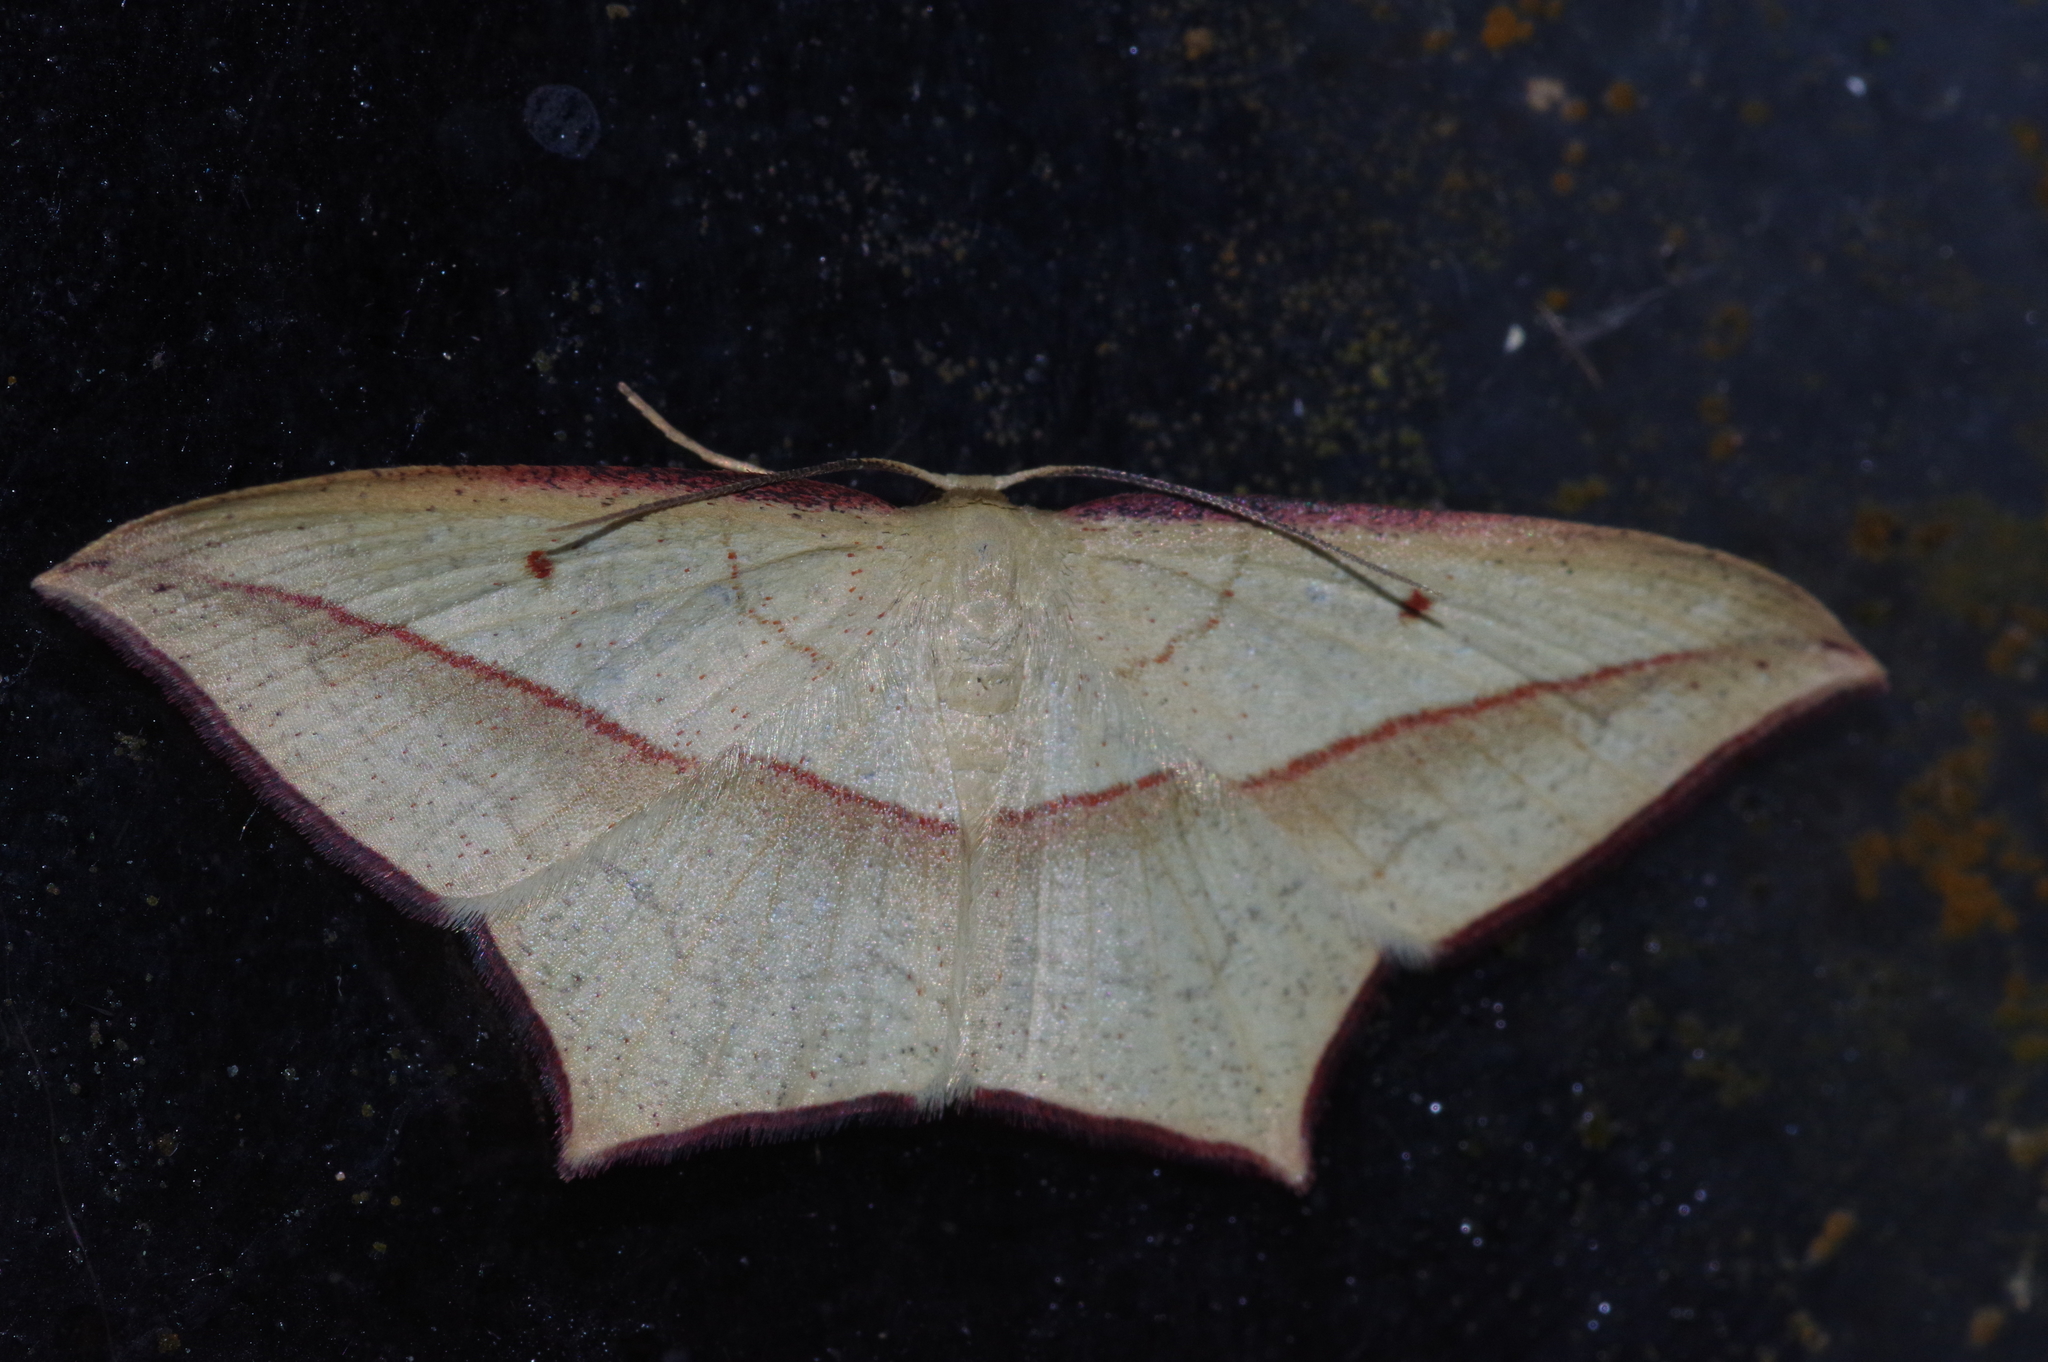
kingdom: Animalia
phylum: Arthropoda
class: Insecta
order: Lepidoptera
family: Geometridae
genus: Timandra
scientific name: Timandra convectaria
